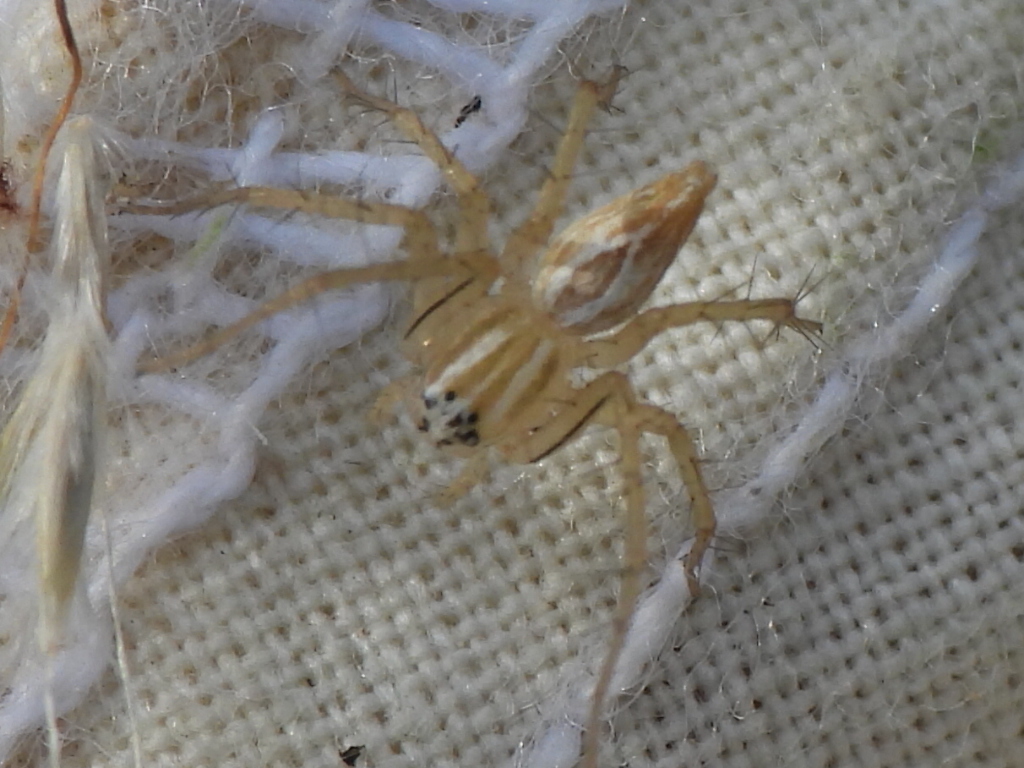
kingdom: Animalia
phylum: Arthropoda
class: Arachnida
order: Araneae
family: Oxyopidae
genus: Oxyopes
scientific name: Oxyopes salticus
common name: Lynx spiders
